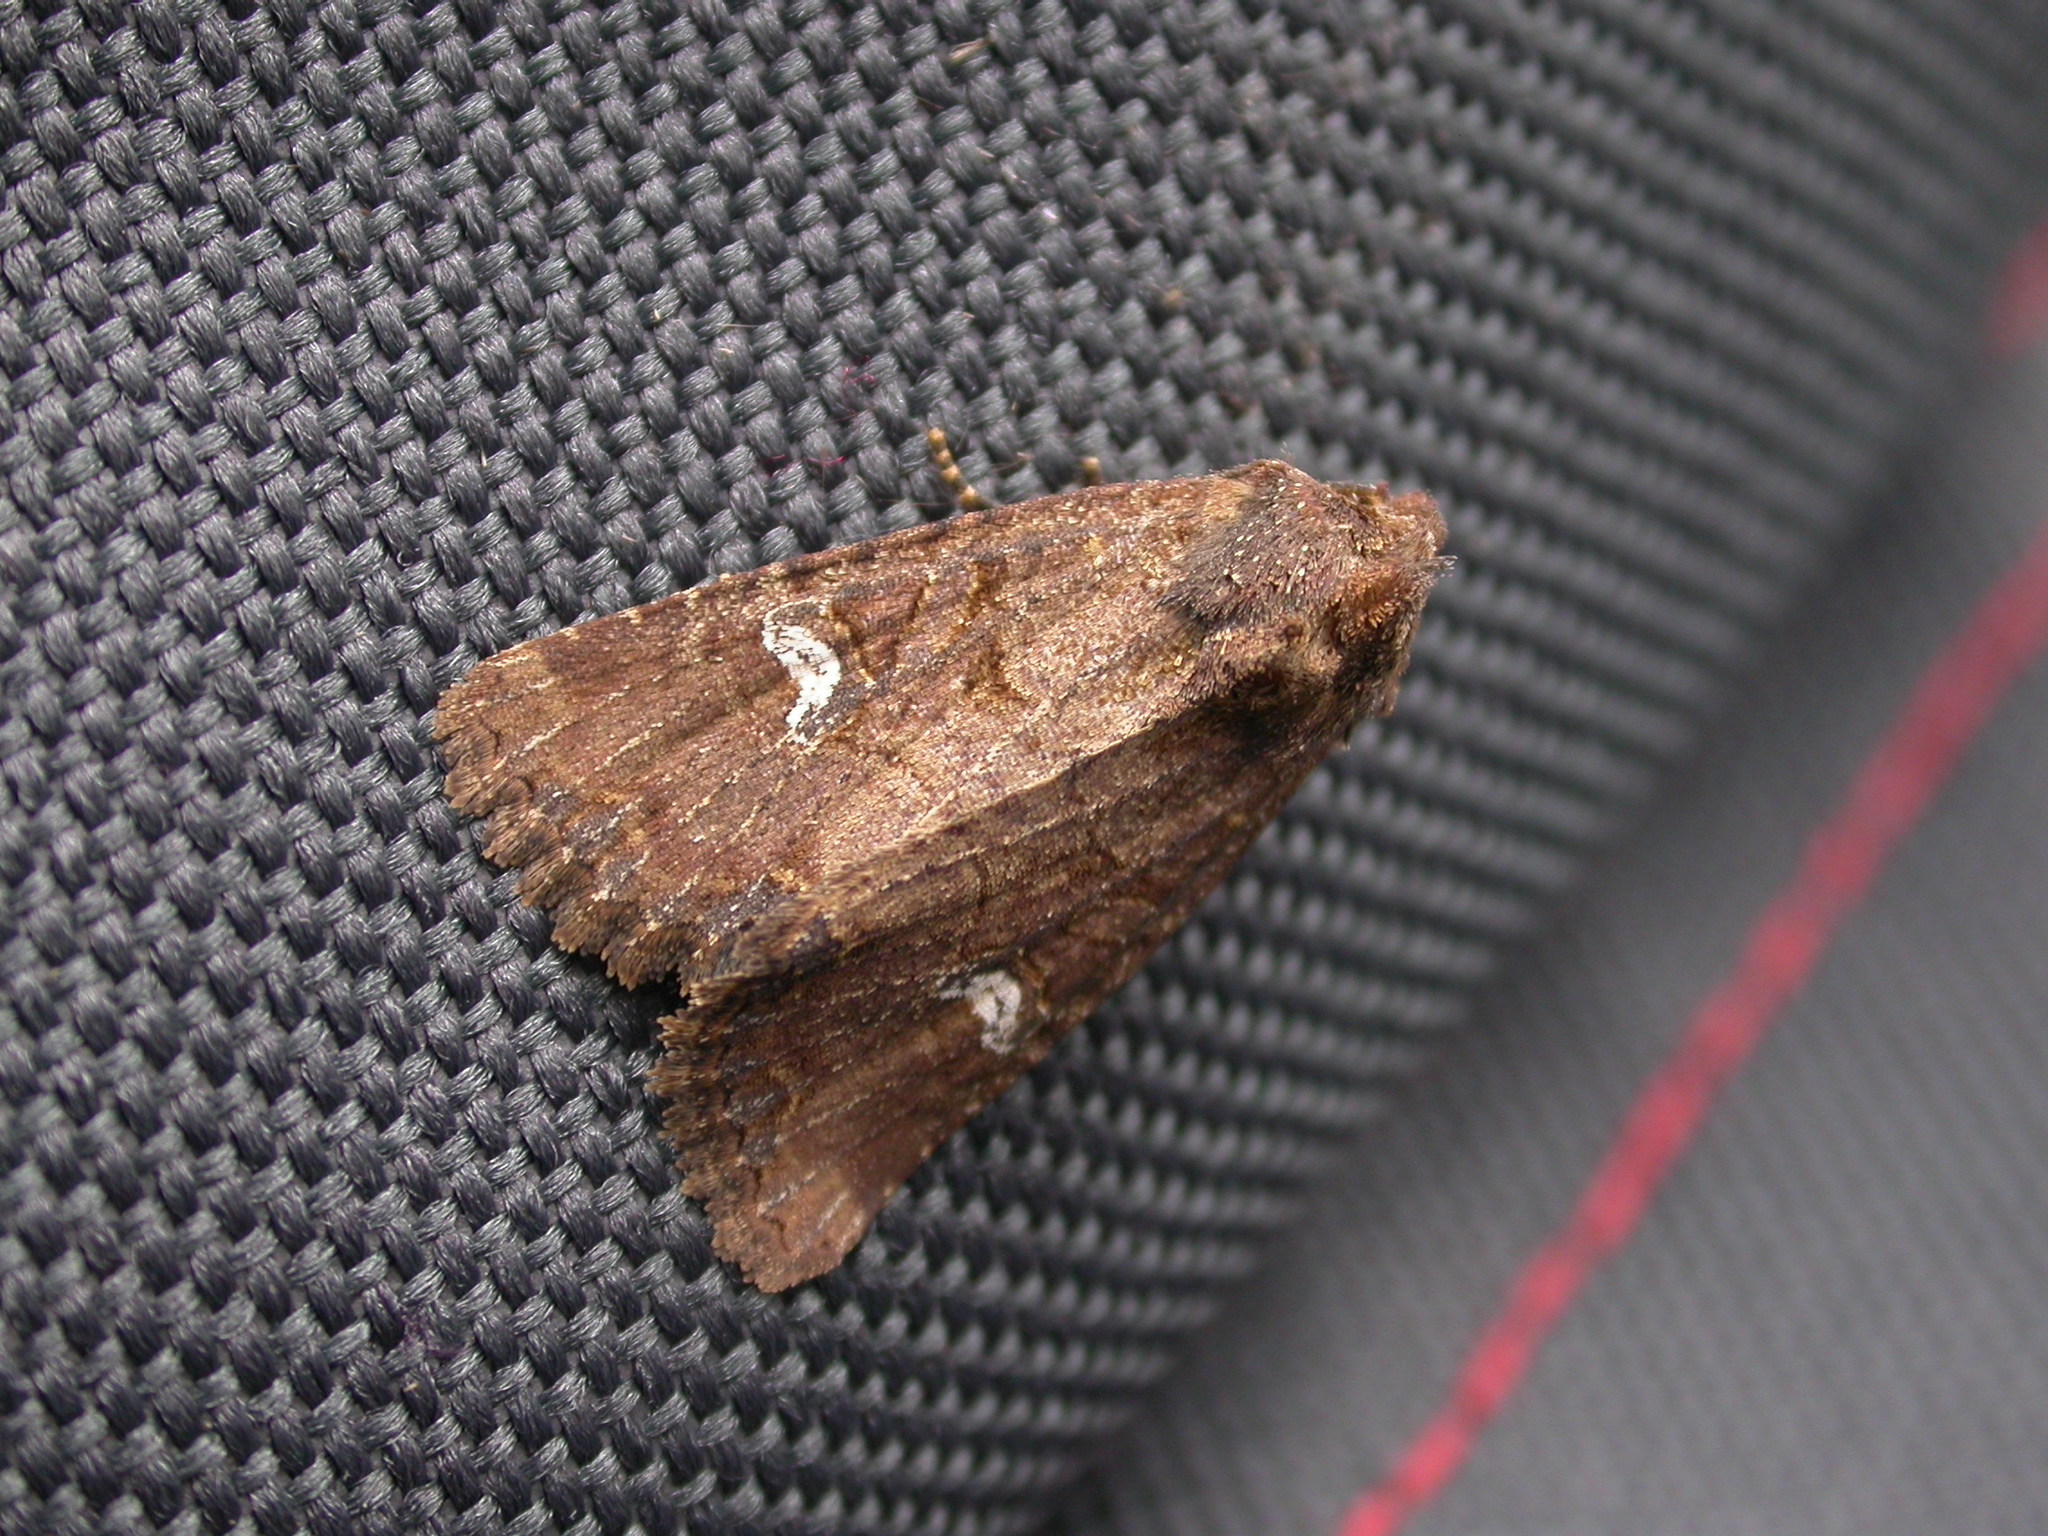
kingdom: Animalia
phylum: Arthropoda
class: Insecta
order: Lepidoptera
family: Noctuidae
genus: Mesapamea
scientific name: Mesapamea secalis
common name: Common rustic
